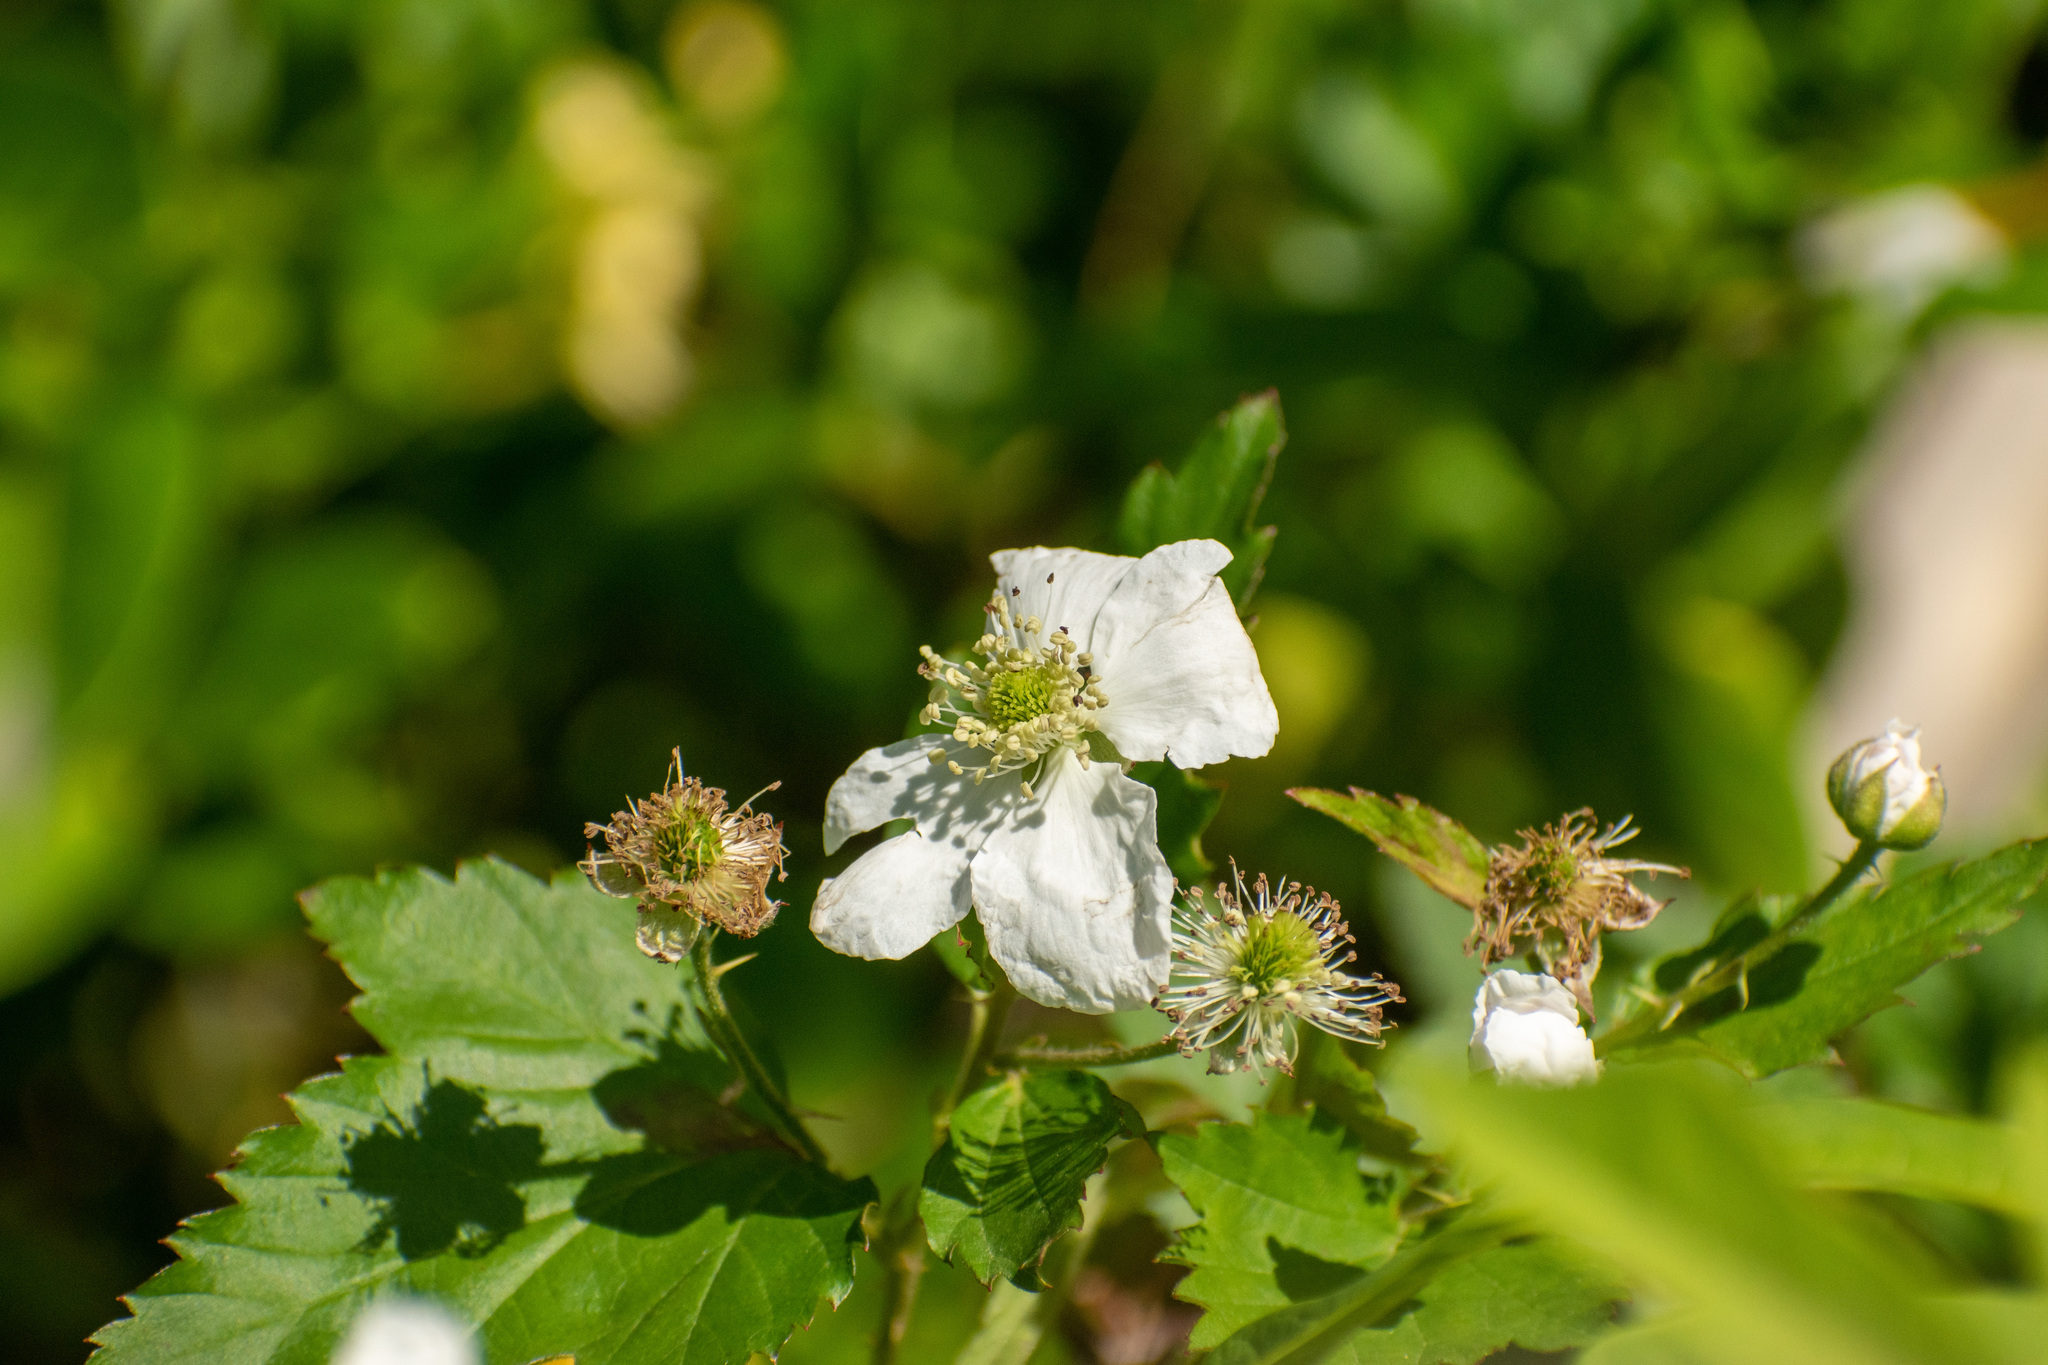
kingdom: Plantae
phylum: Tracheophyta
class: Magnoliopsida
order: Rosales
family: Rosaceae
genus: Rubus
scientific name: Rubus ulmifolius
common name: Elmleaf blackberry
